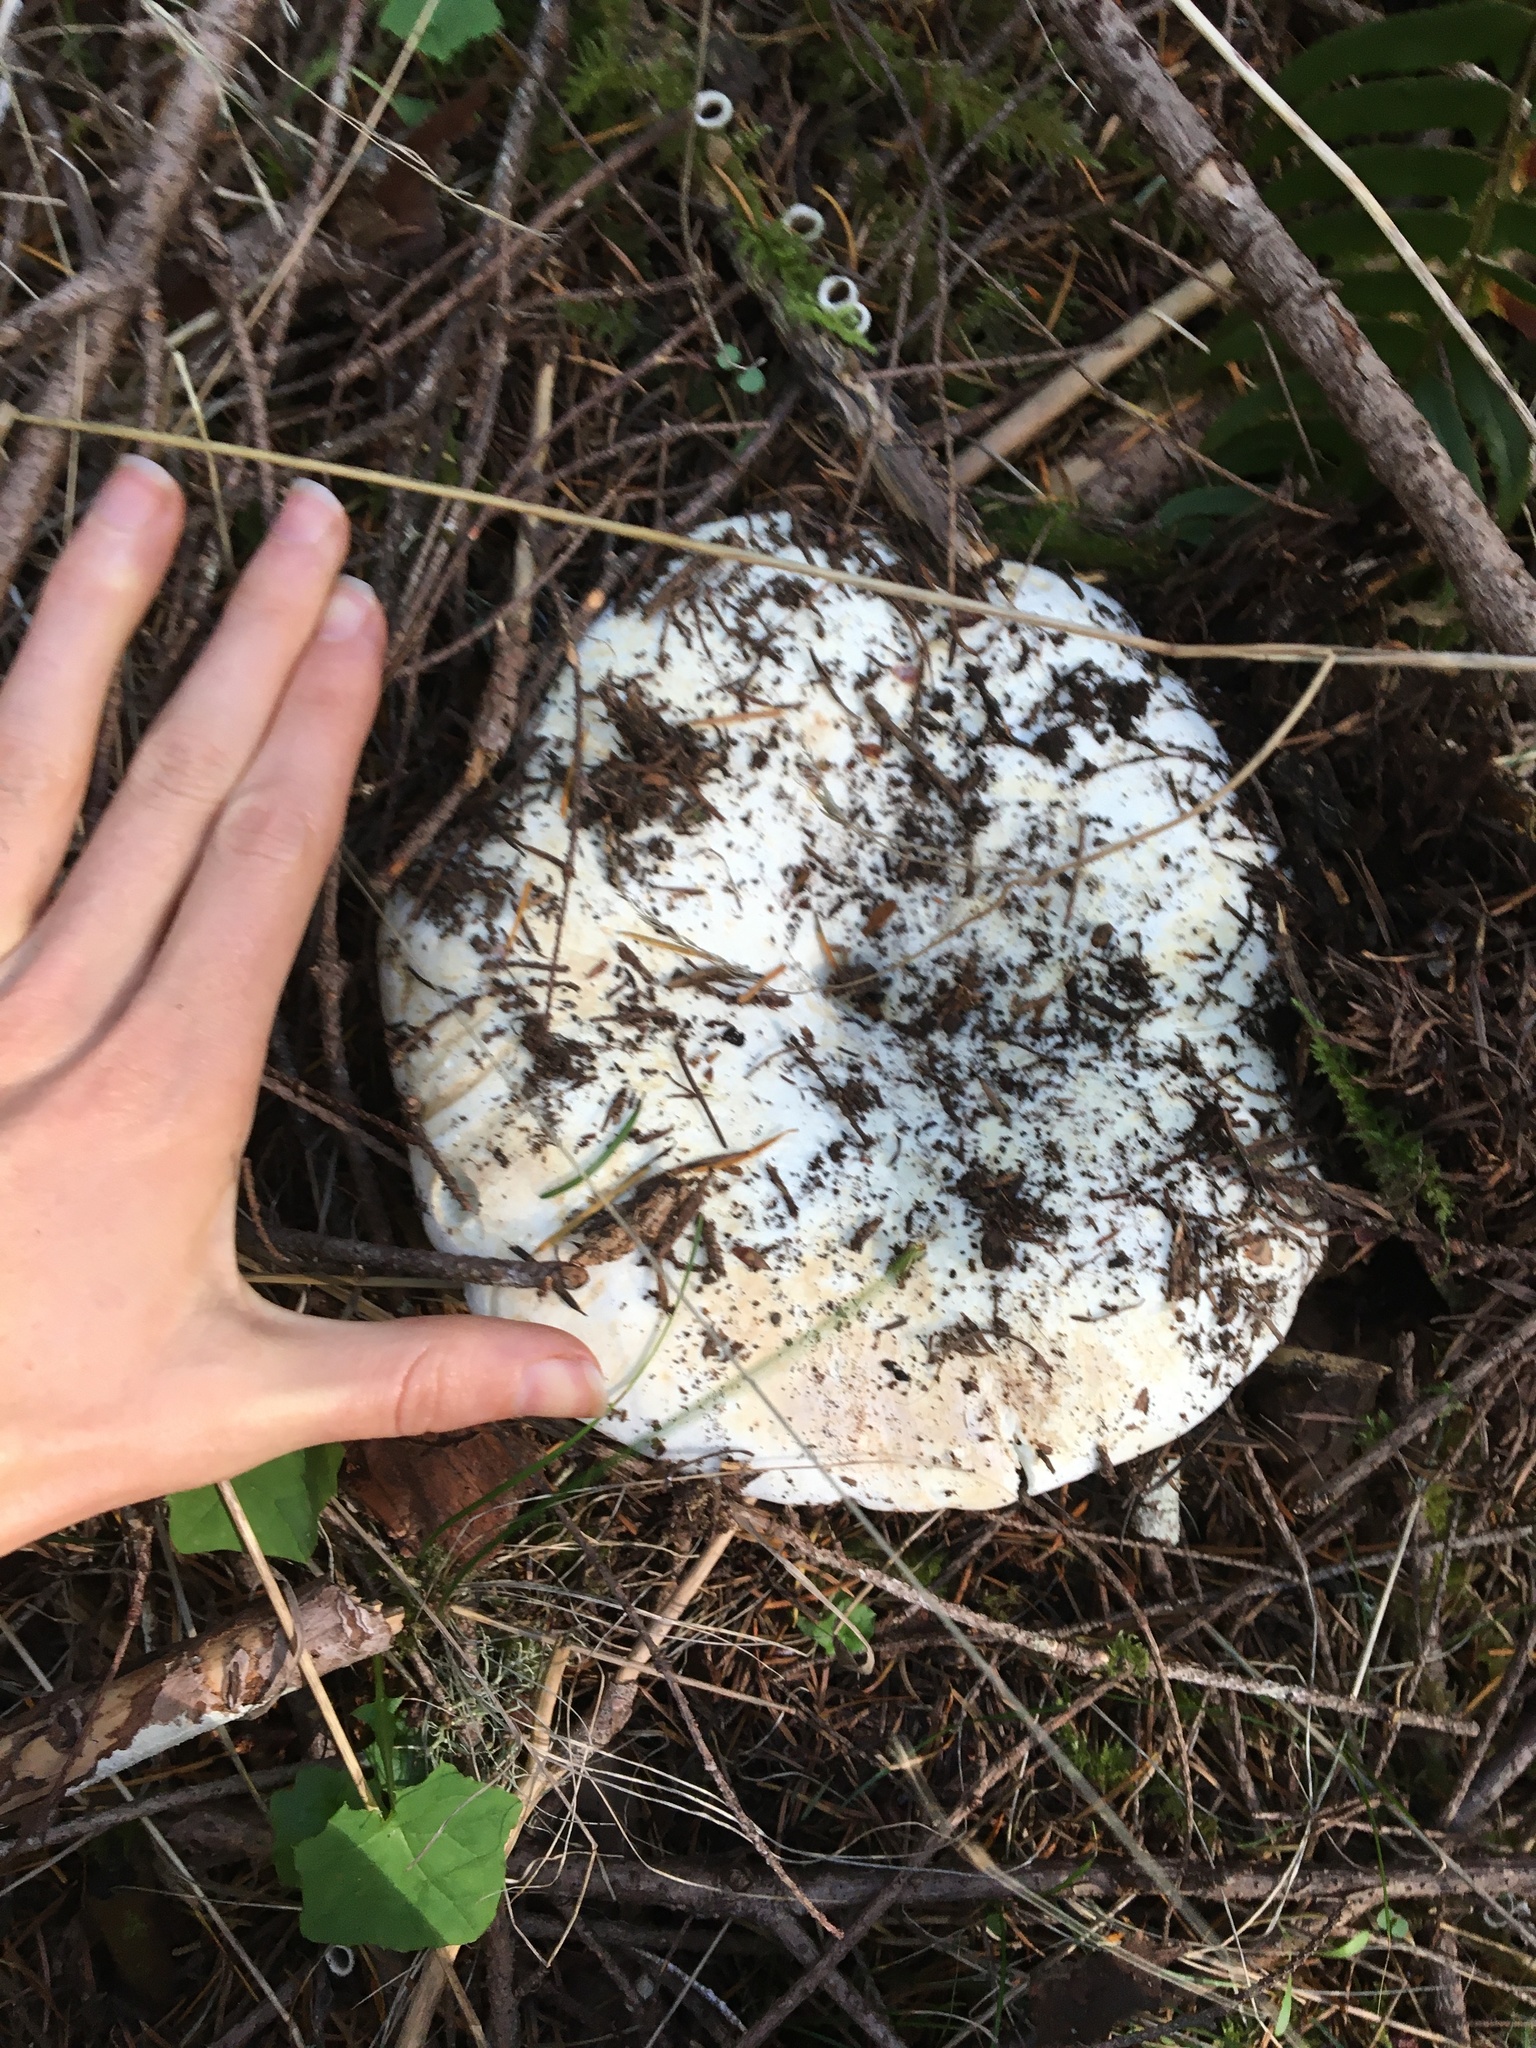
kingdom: Fungi
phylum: Basidiomycota
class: Agaricomycetes
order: Russulales
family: Russulaceae
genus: Russula
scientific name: Russula brevipes
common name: Short-stemmed russula
